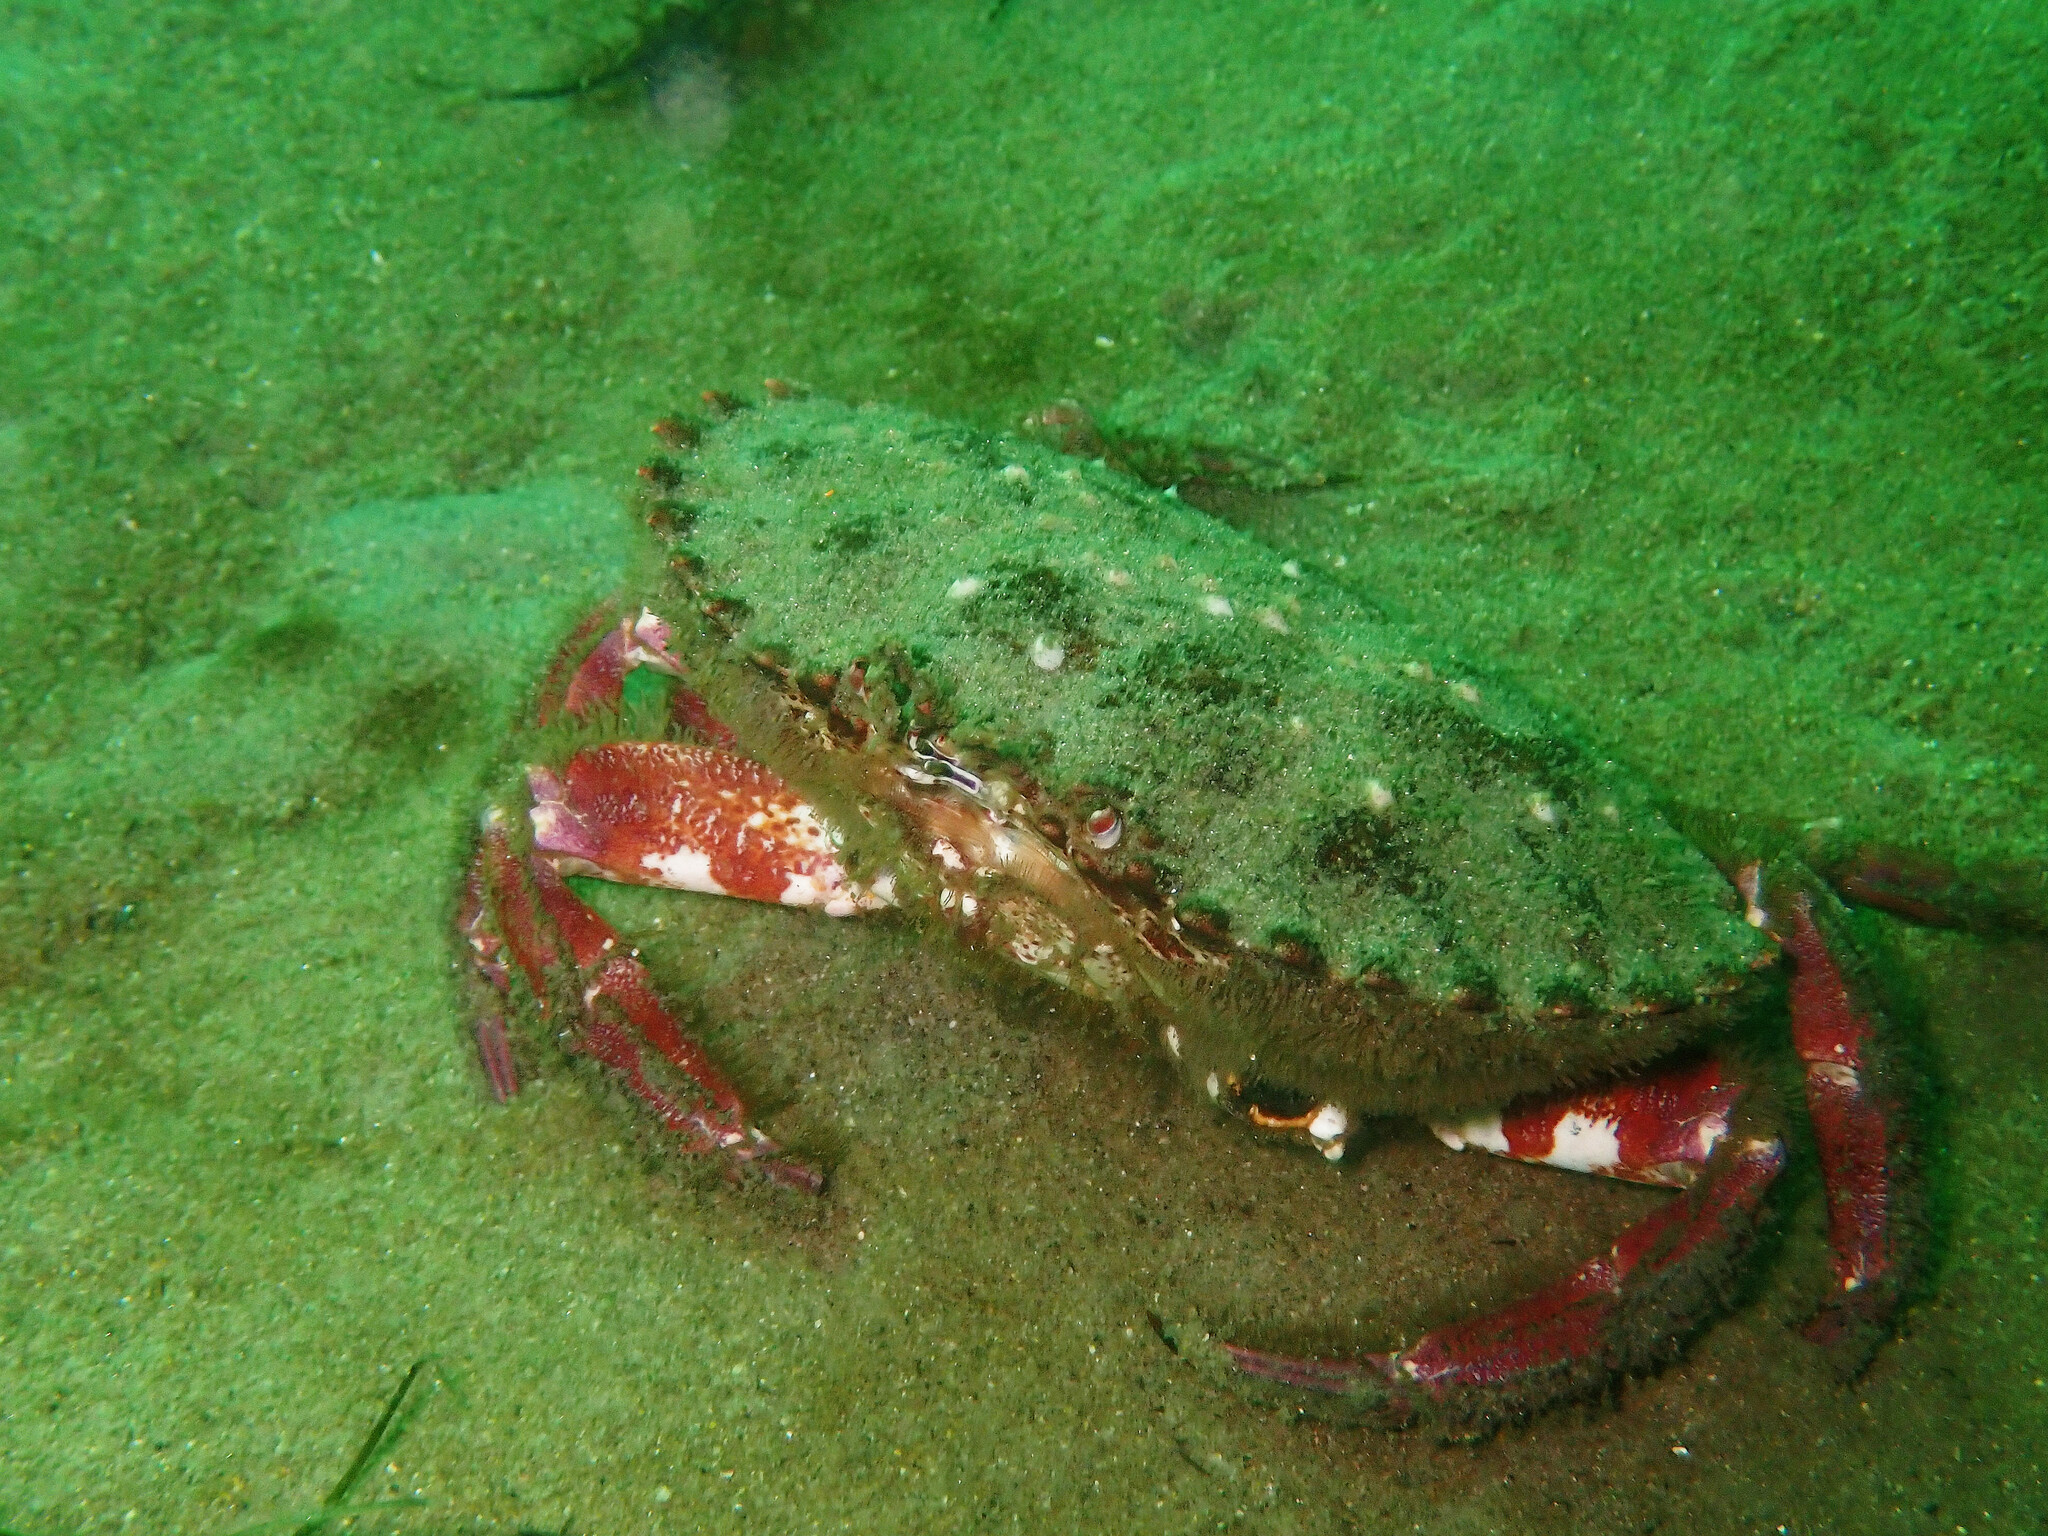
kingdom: Animalia
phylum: Arthropoda
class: Malacostraca
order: Decapoda
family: Cancridae
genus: Romaleon
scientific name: Romaleon antennarium
